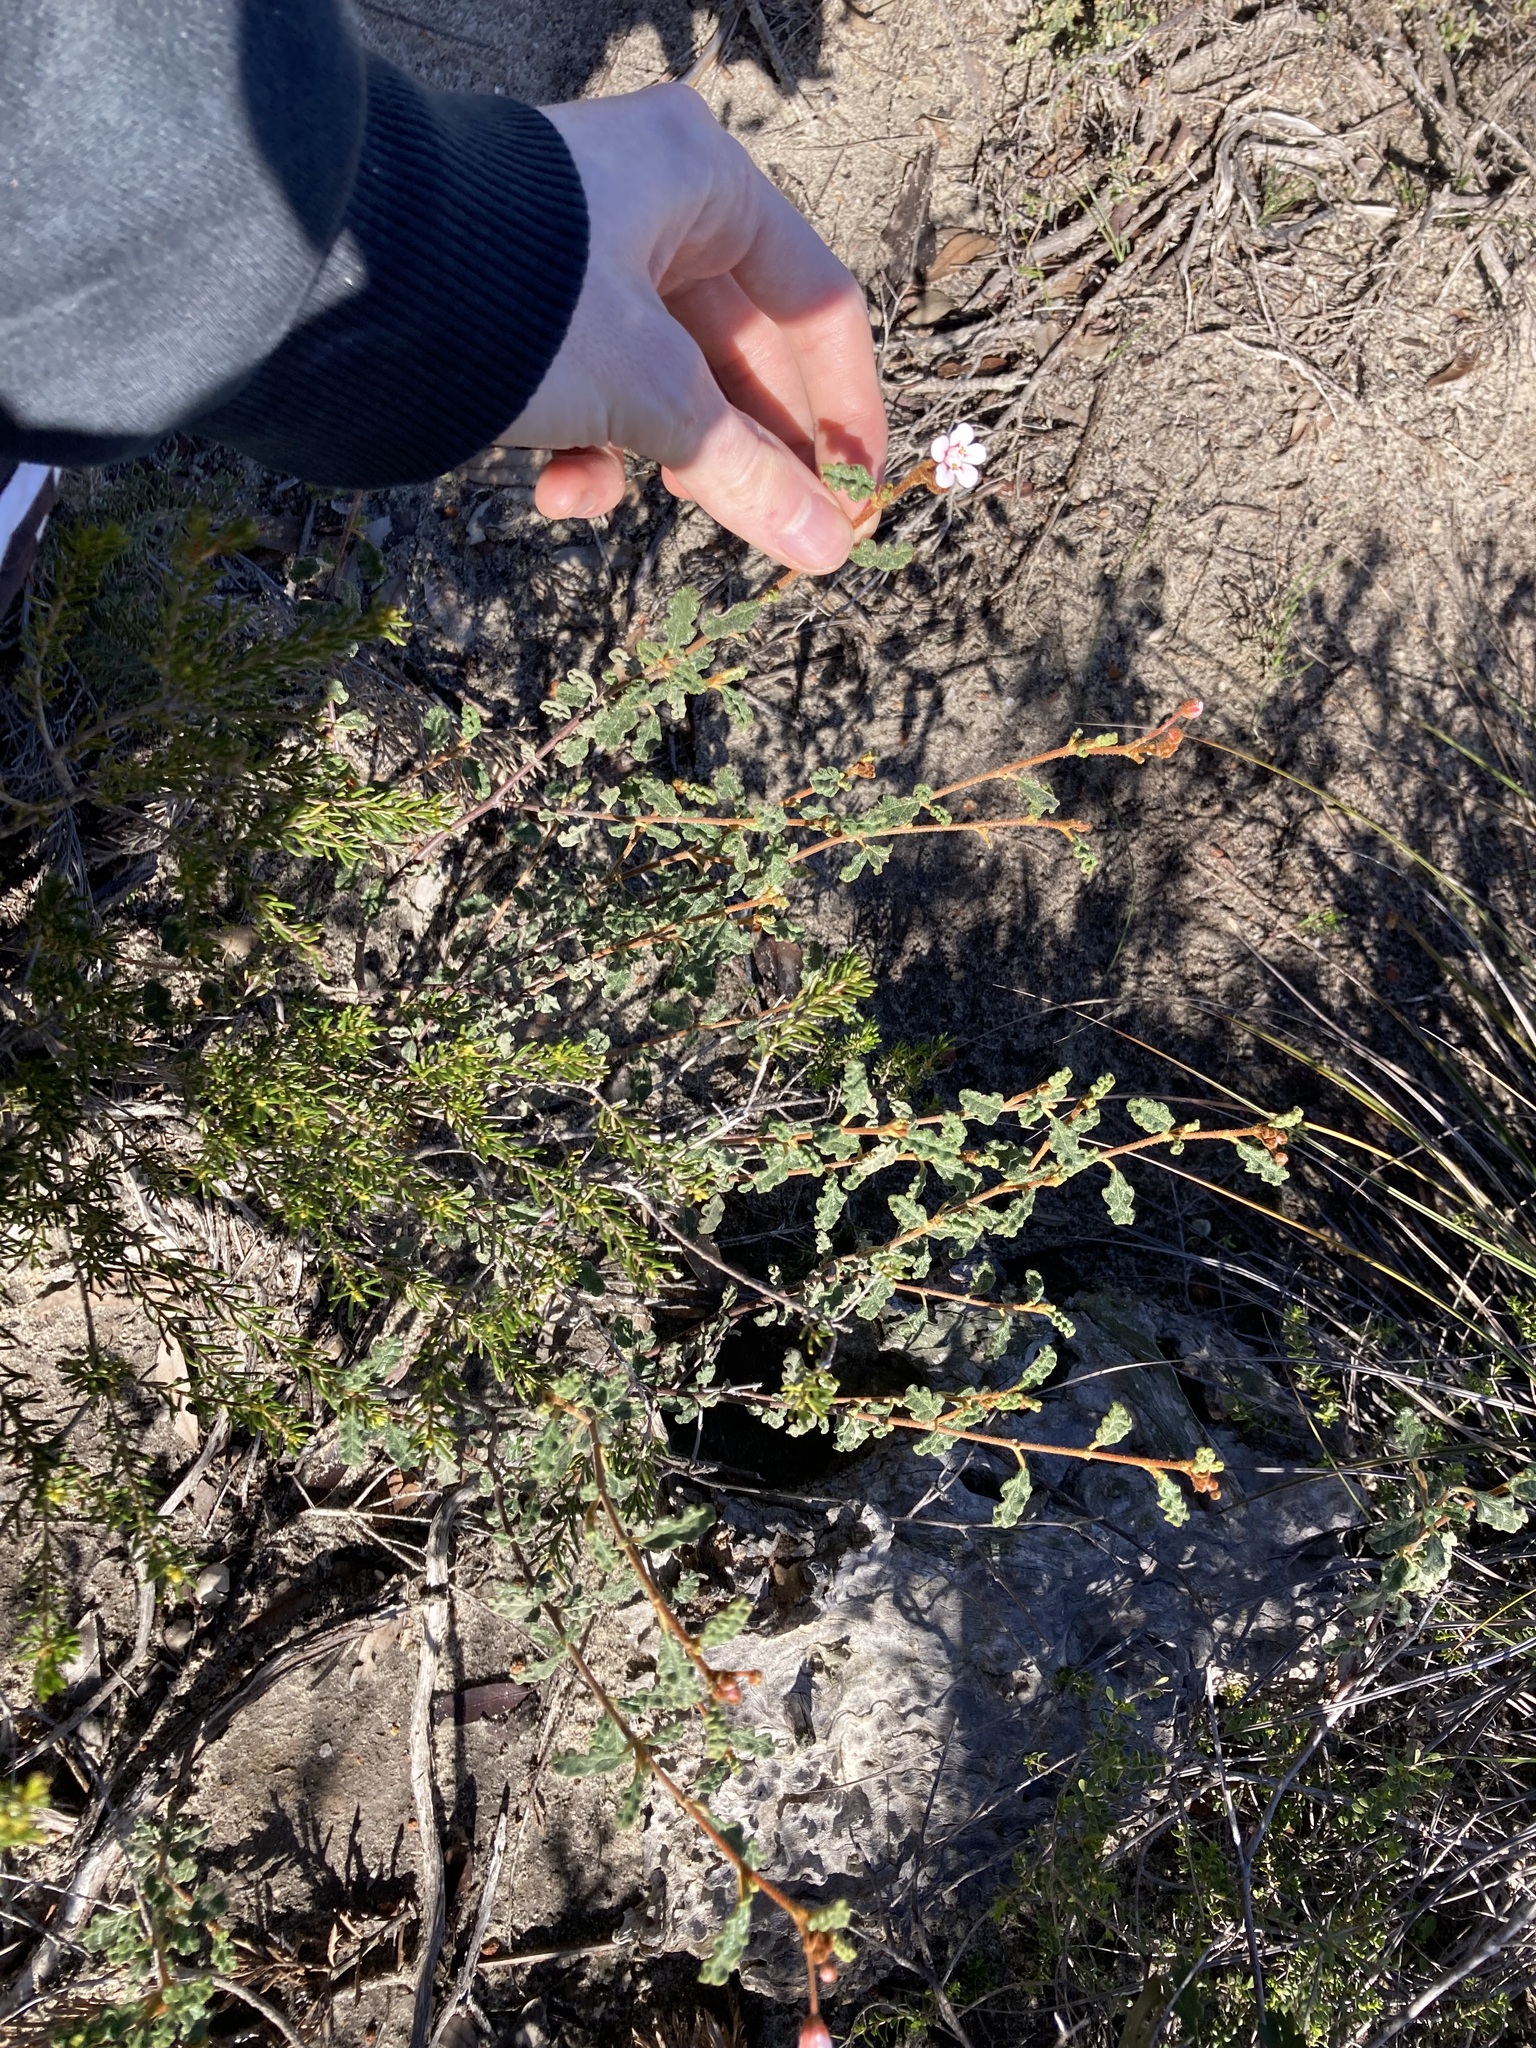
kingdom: Plantae
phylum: Tracheophyta
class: Magnoliopsida
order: Malvales
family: Malvaceae
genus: Androcalva
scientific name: Androcalva pulchella
